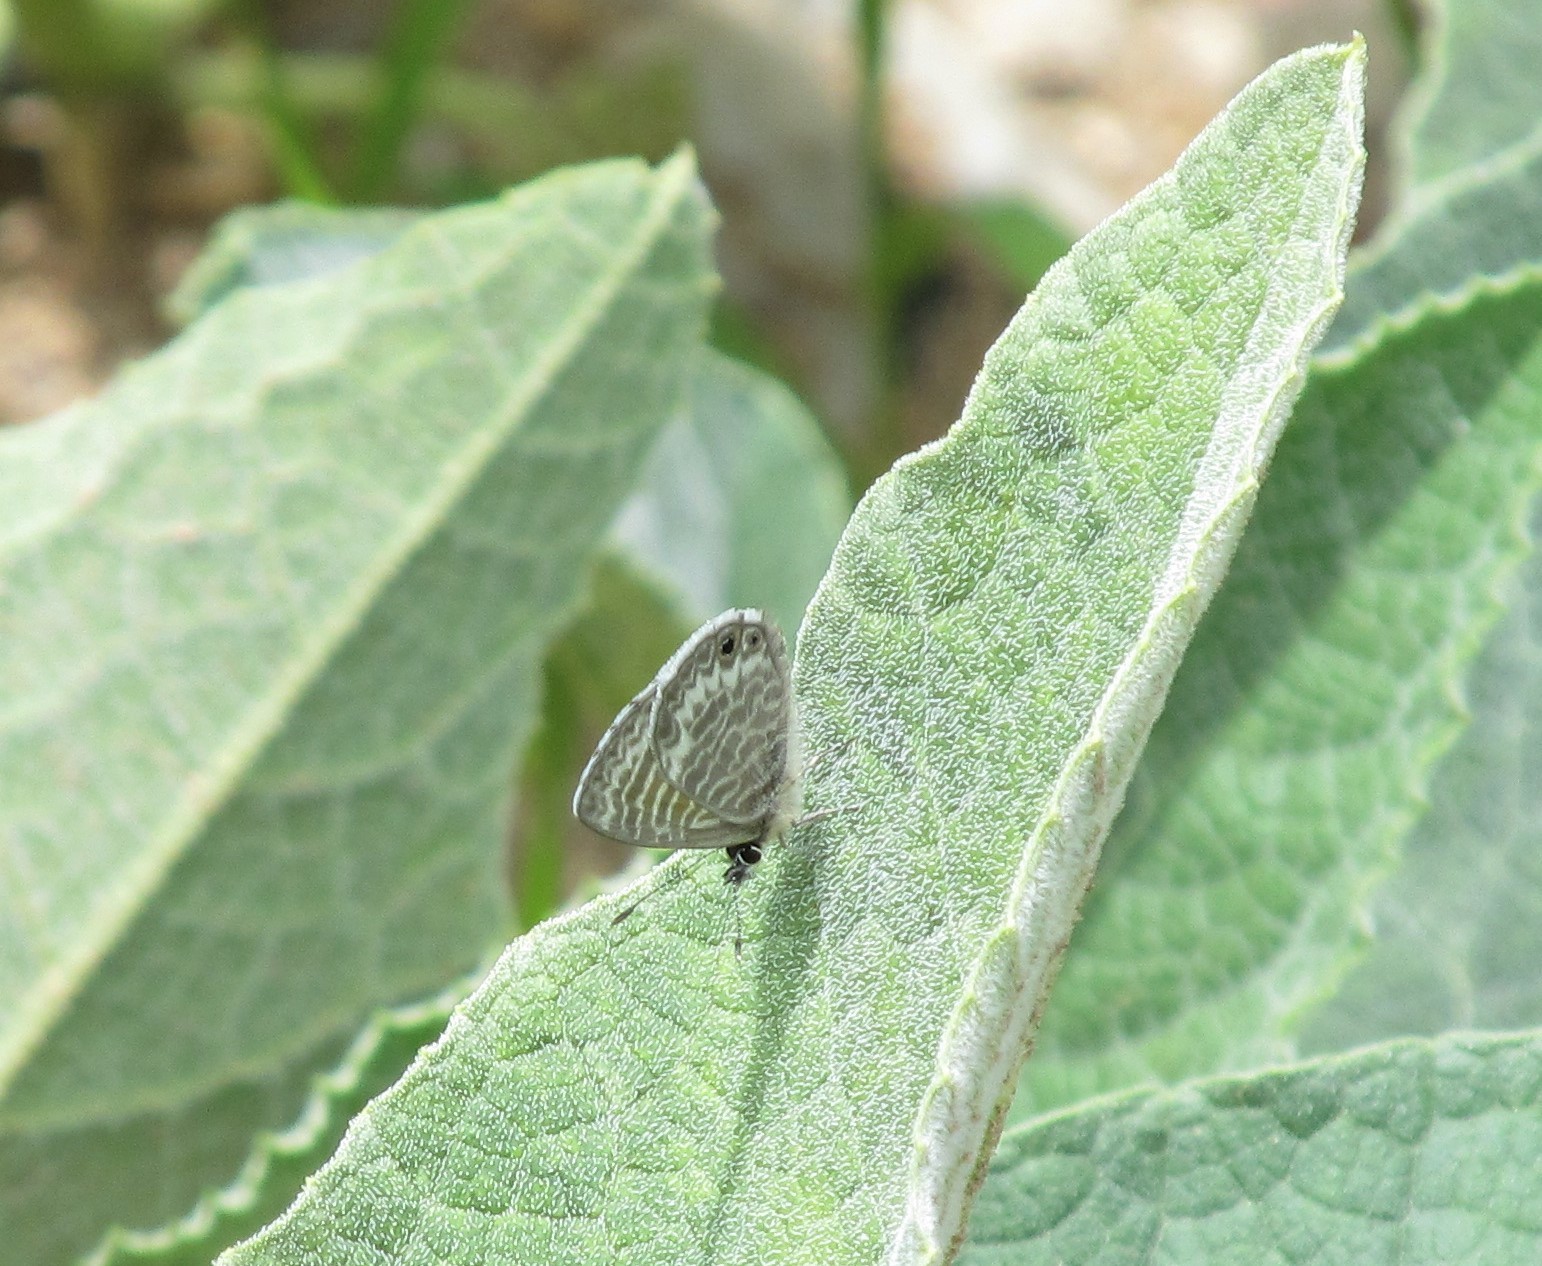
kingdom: Animalia
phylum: Arthropoda
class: Insecta
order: Lepidoptera
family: Lycaenidae
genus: Leptotes
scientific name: Leptotes marina
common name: Marine blue
